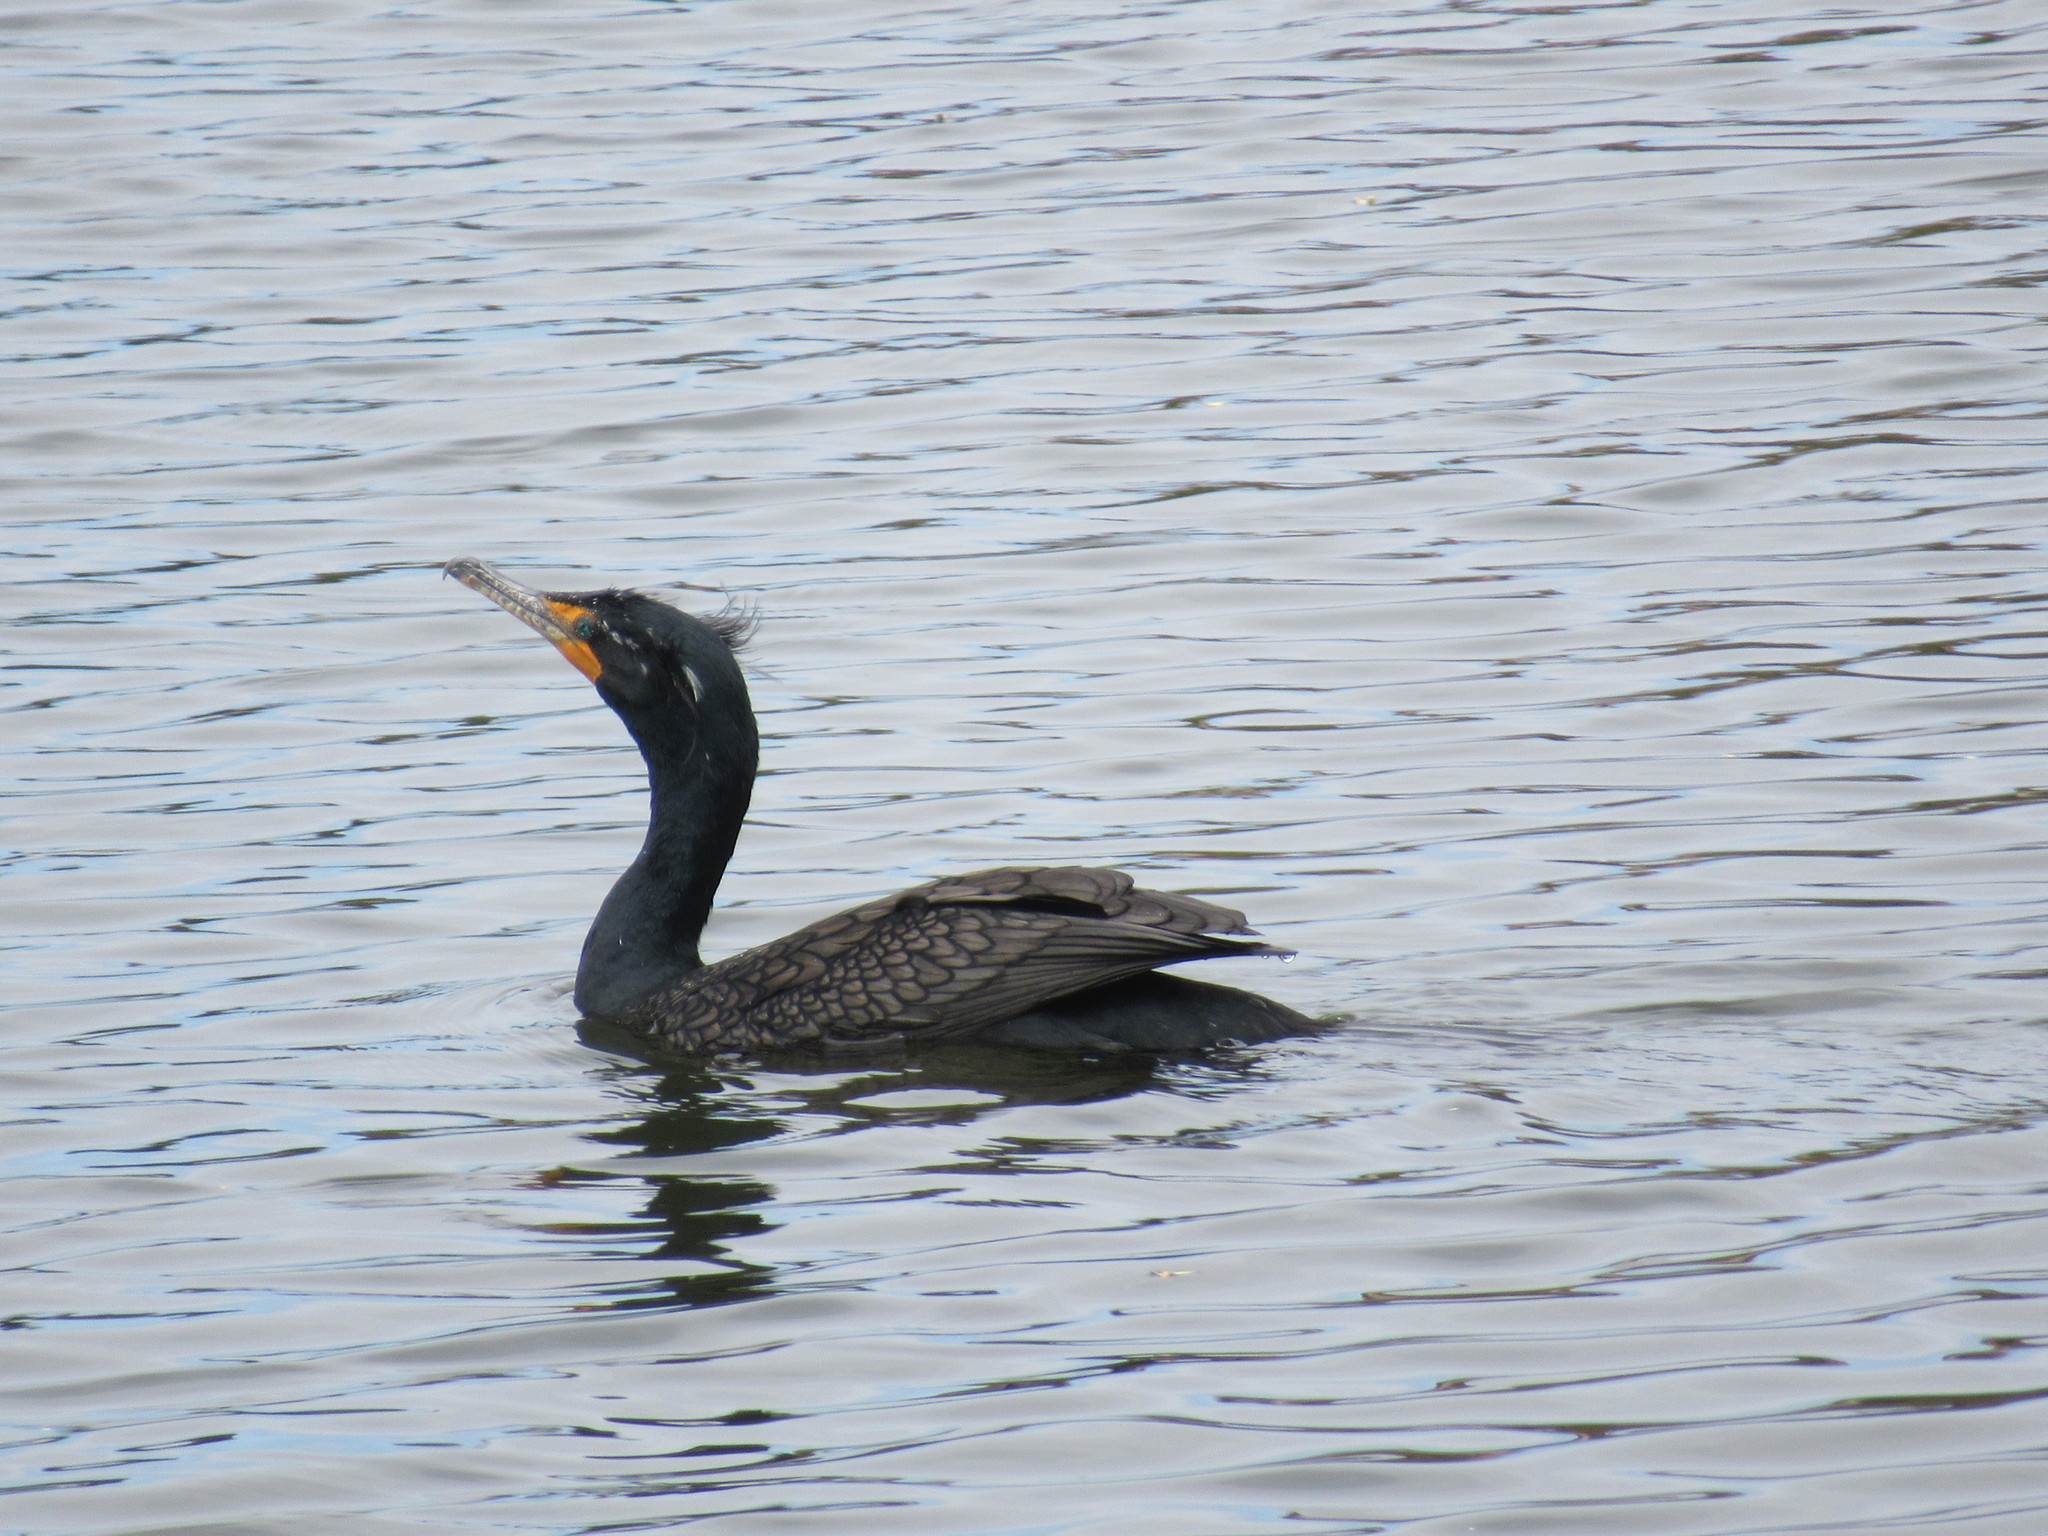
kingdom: Animalia
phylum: Chordata
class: Aves
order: Suliformes
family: Phalacrocoracidae
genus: Phalacrocorax
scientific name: Phalacrocorax auritus
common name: Double-crested cormorant
